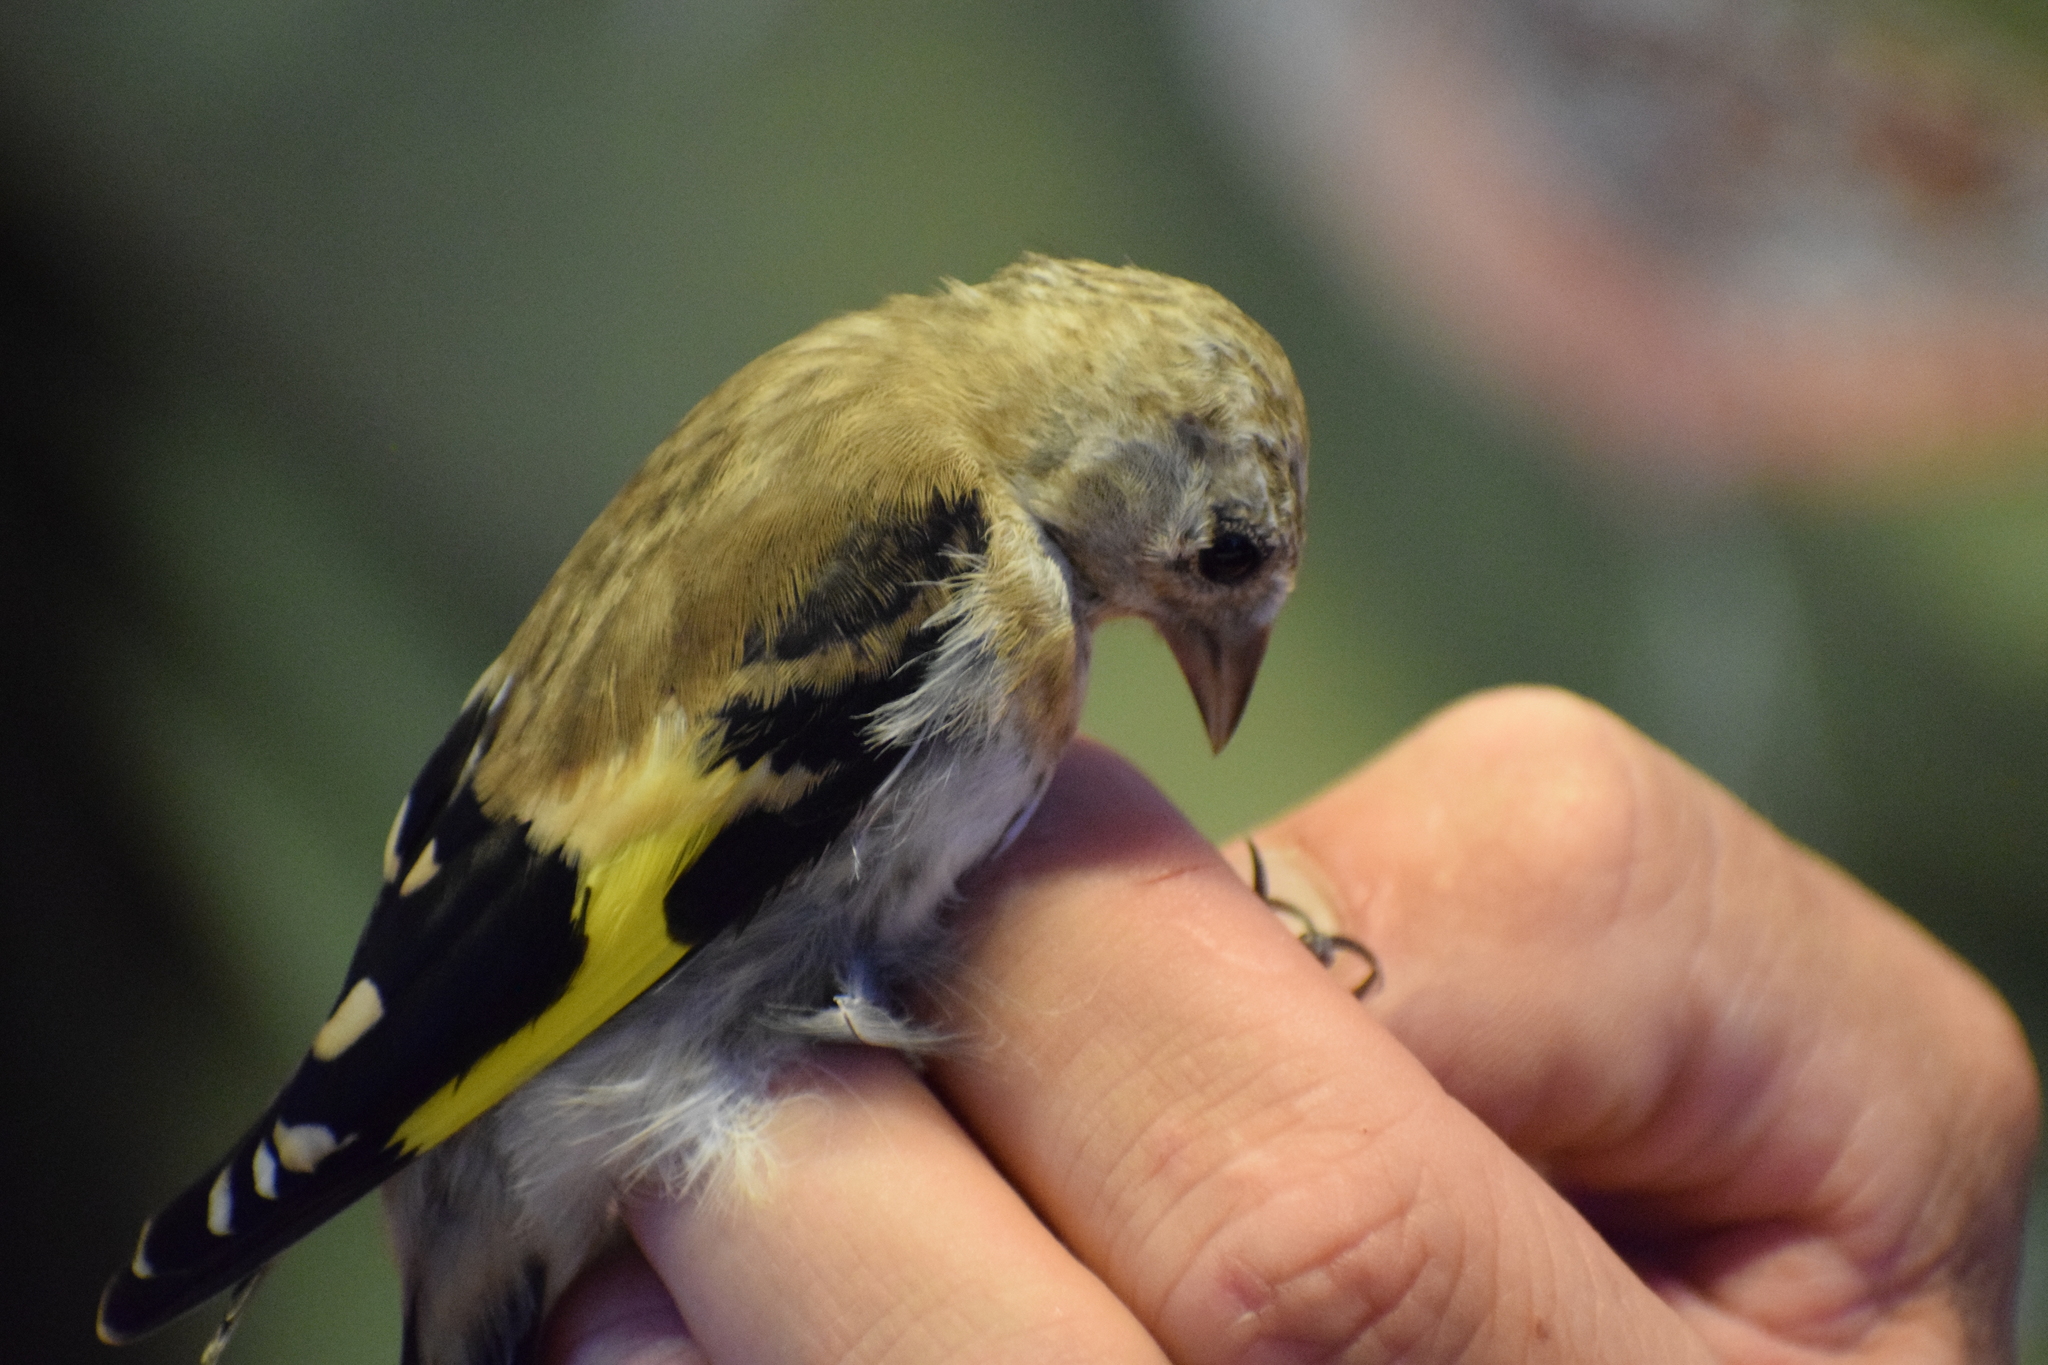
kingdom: Animalia
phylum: Chordata
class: Aves
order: Passeriformes
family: Fringillidae
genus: Carduelis
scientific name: Carduelis carduelis
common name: European goldfinch
